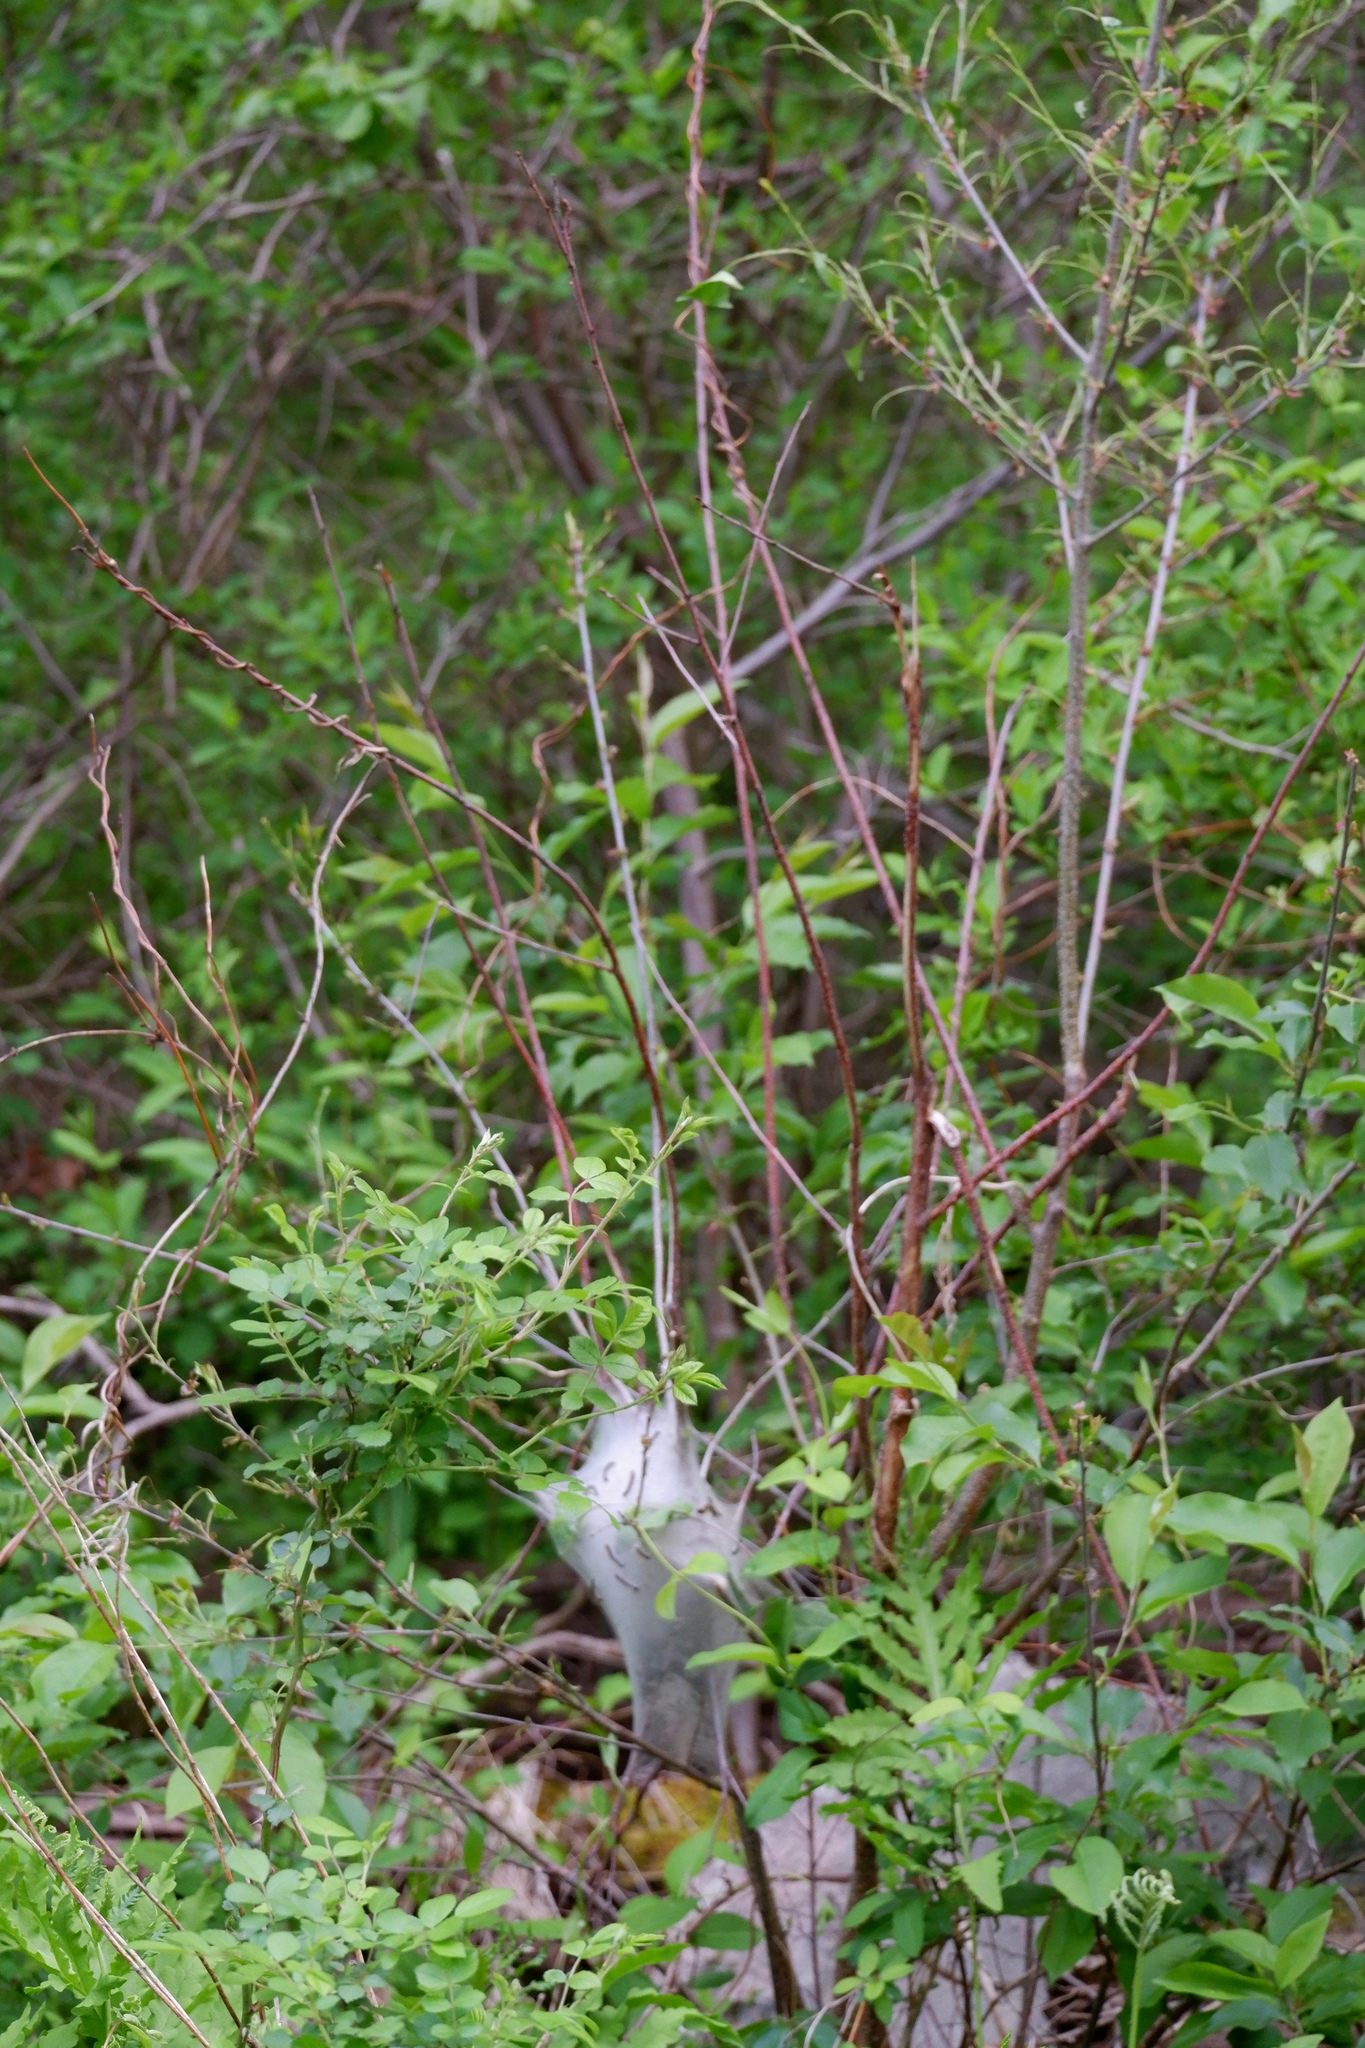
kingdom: Animalia
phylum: Arthropoda
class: Insecta
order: Lepidoptera
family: Lasiocampidae
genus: Malacosoma
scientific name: Malacosoma americana
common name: Eastern tent caterpillar moth
